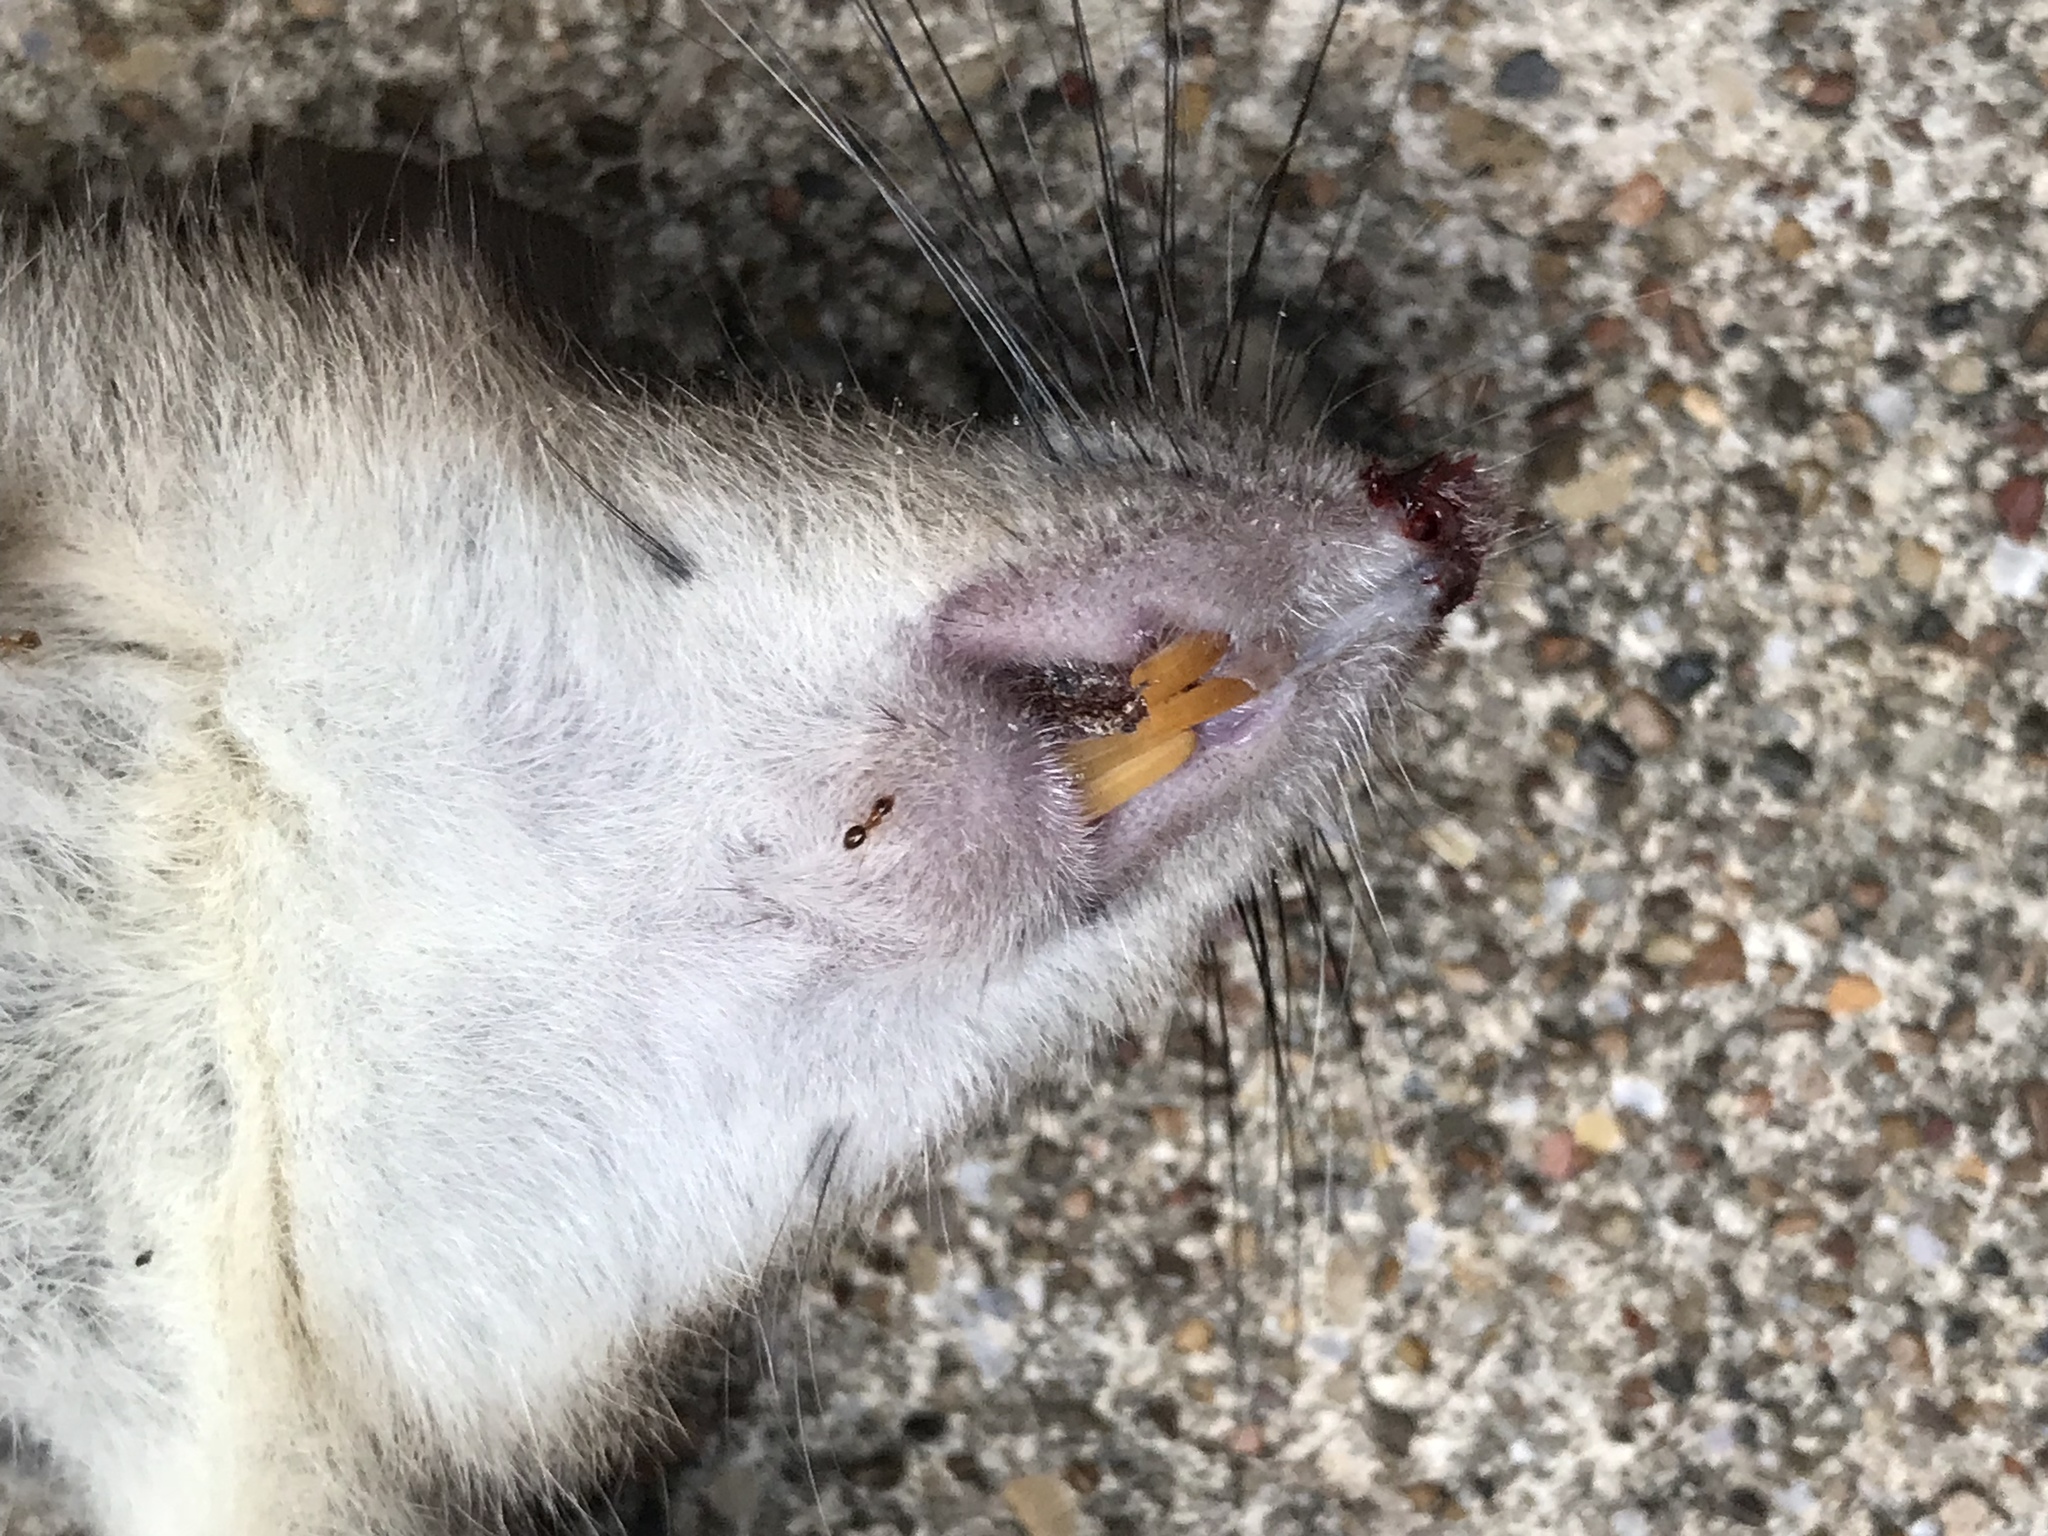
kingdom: Animalia
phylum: Chordata
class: Mammalia
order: Rodentia
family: Muridae
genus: Rattus
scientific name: Rattus rattus
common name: Black rat
